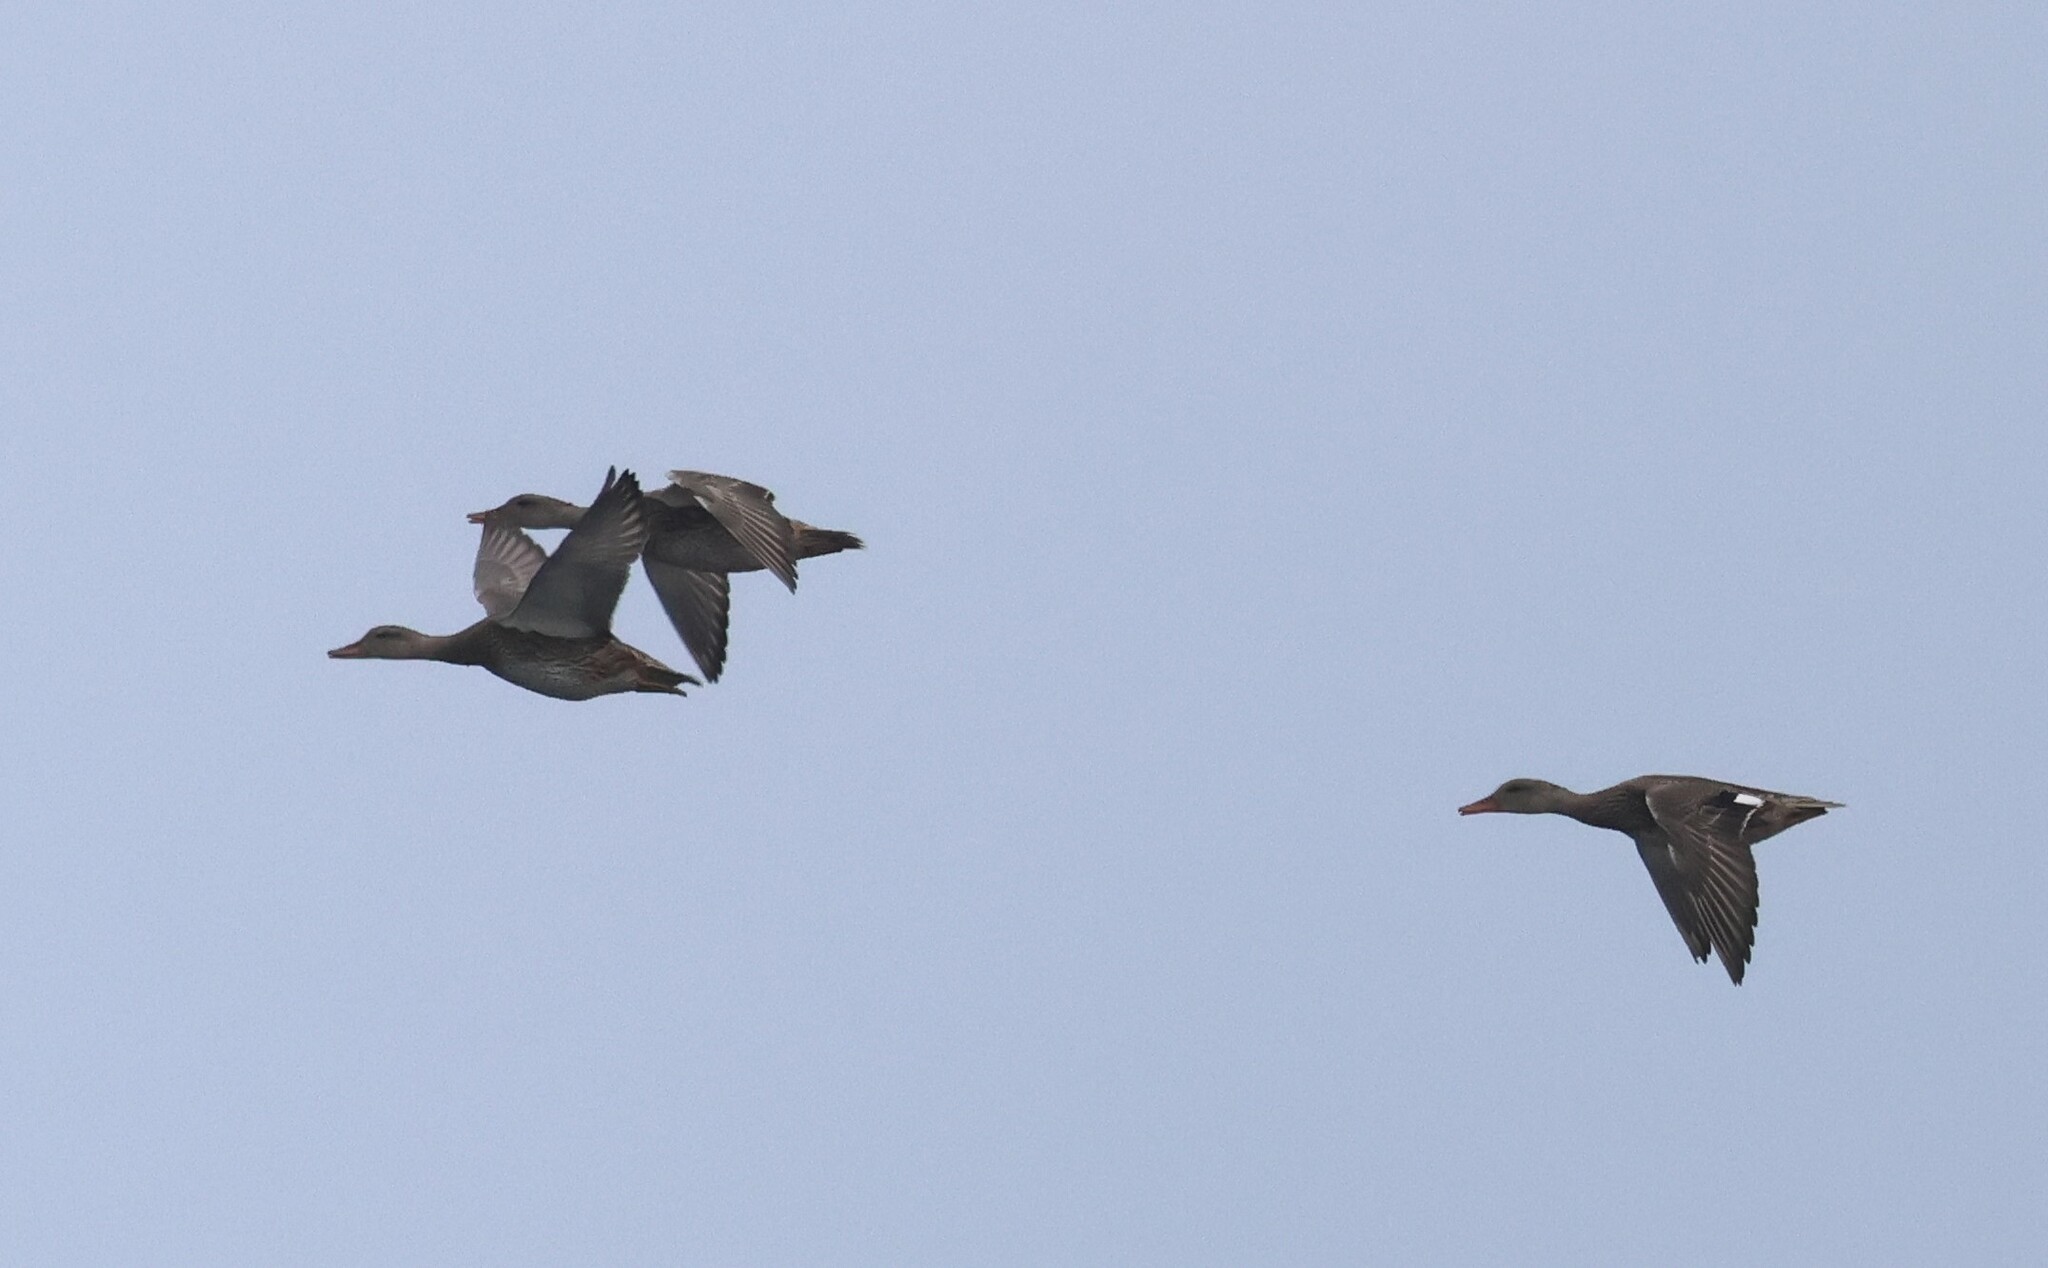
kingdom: Animalia
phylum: Chordata
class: Aves
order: Anseriformes
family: Anatidae
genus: Mareca
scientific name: Mareca strepera
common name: Gadwall
